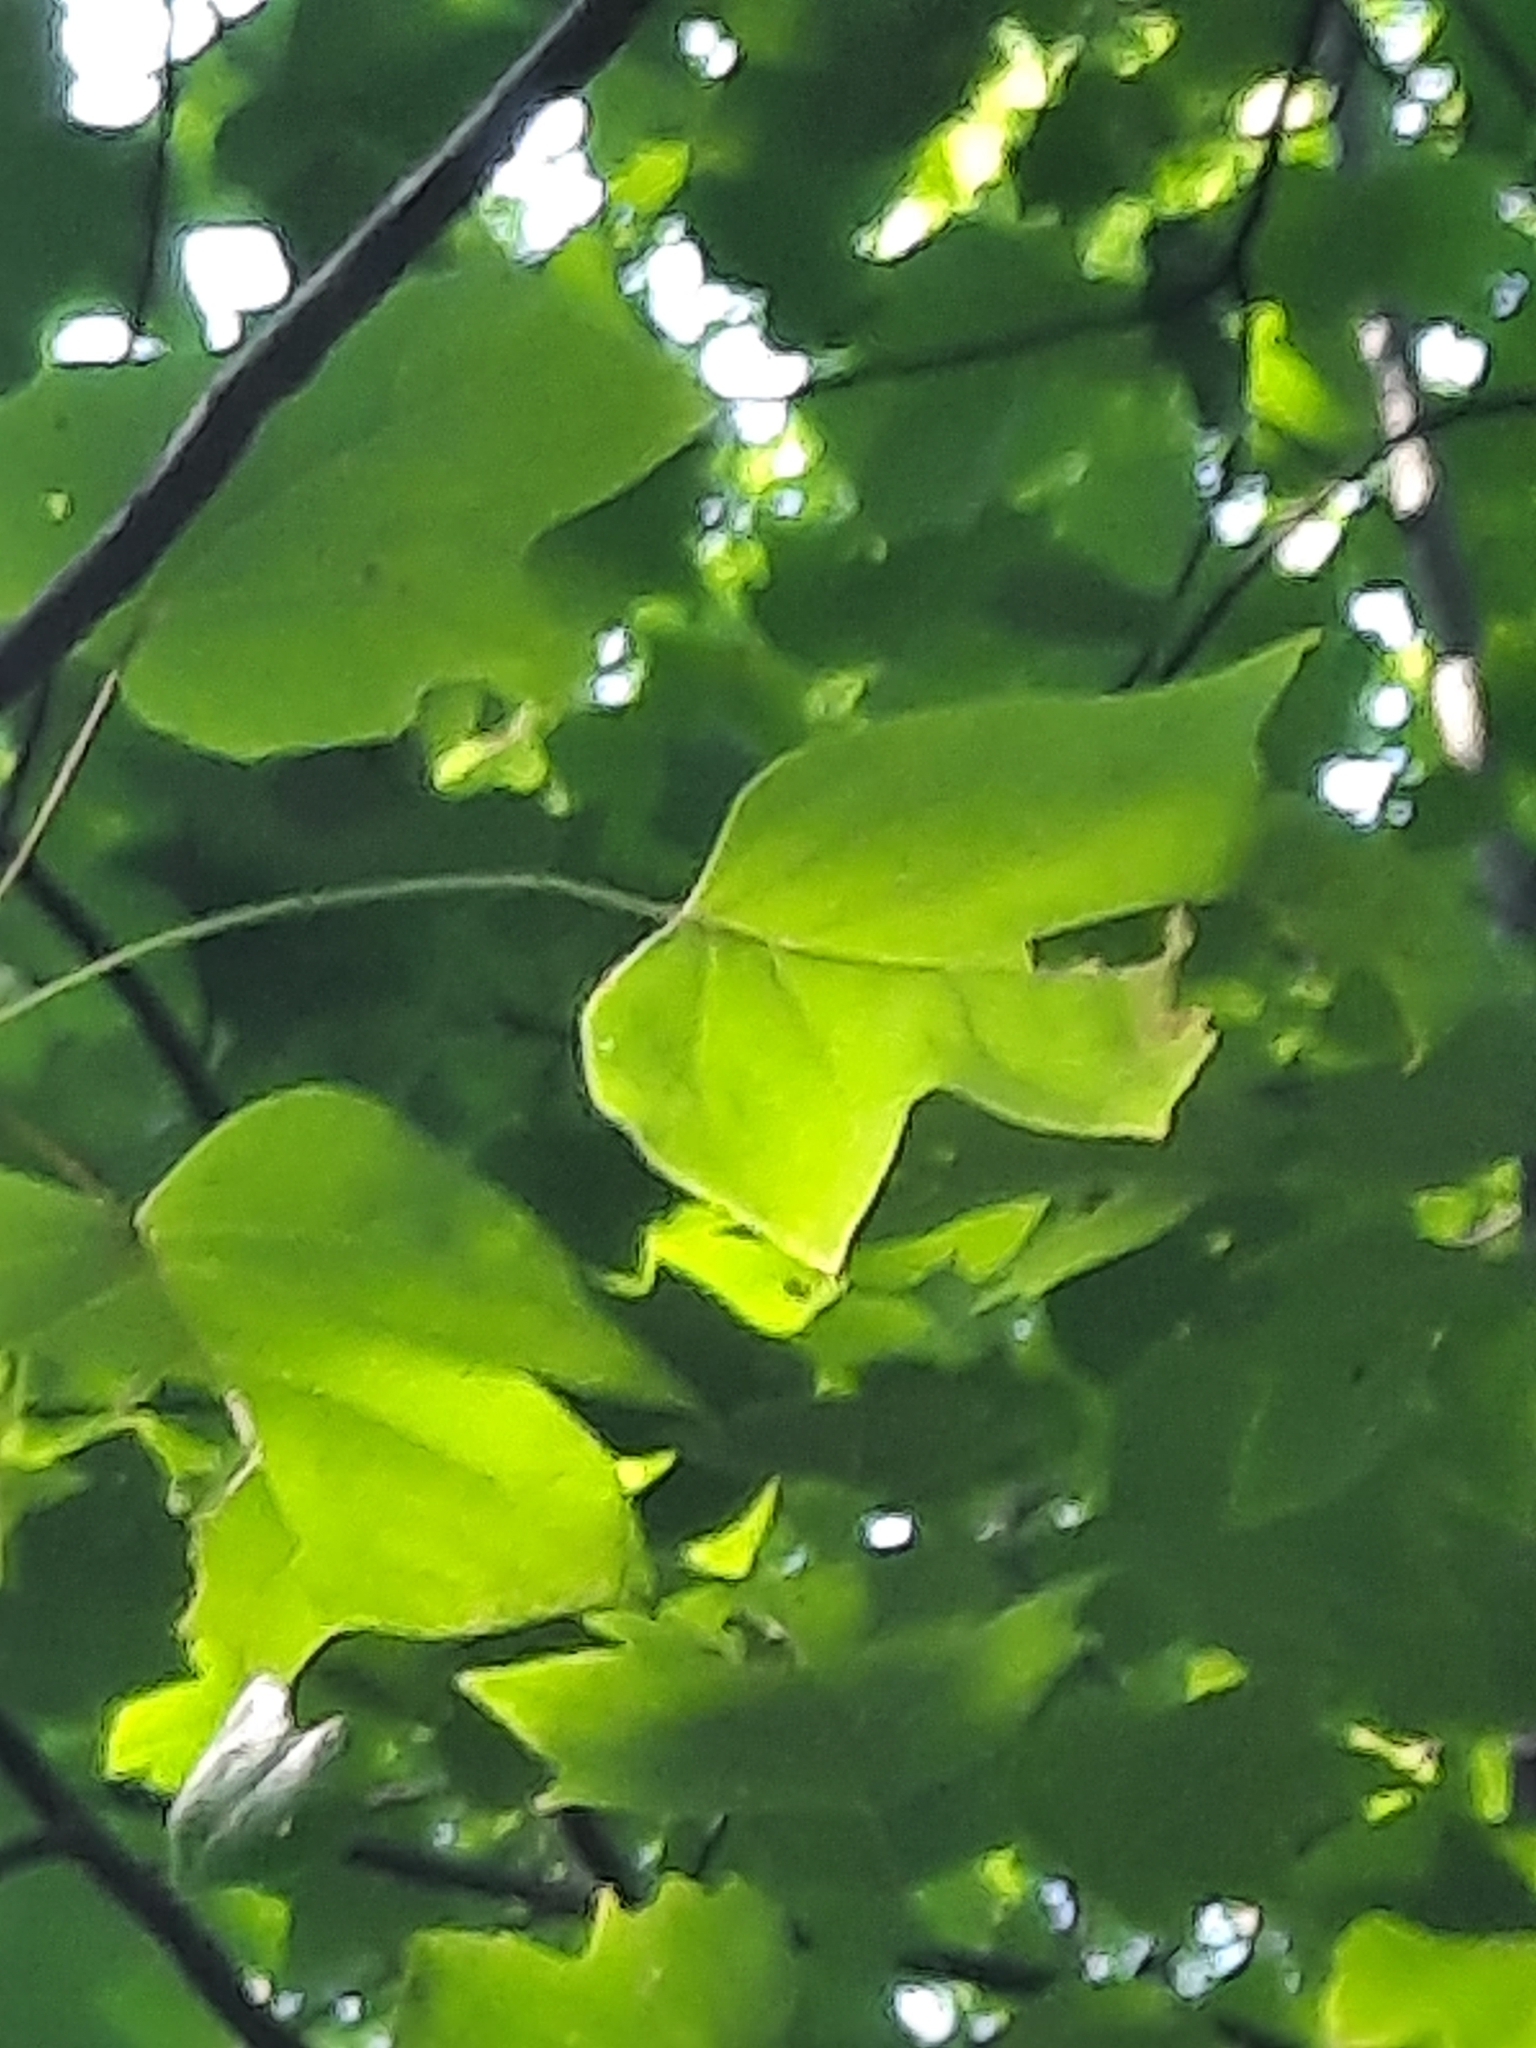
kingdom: Plantae
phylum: Tracheophyta
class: Magnoliopsida
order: Magnoliales
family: Magnoliaceae
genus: Liriodendron
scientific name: Liriodendron tulipifera
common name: Tulip tree
